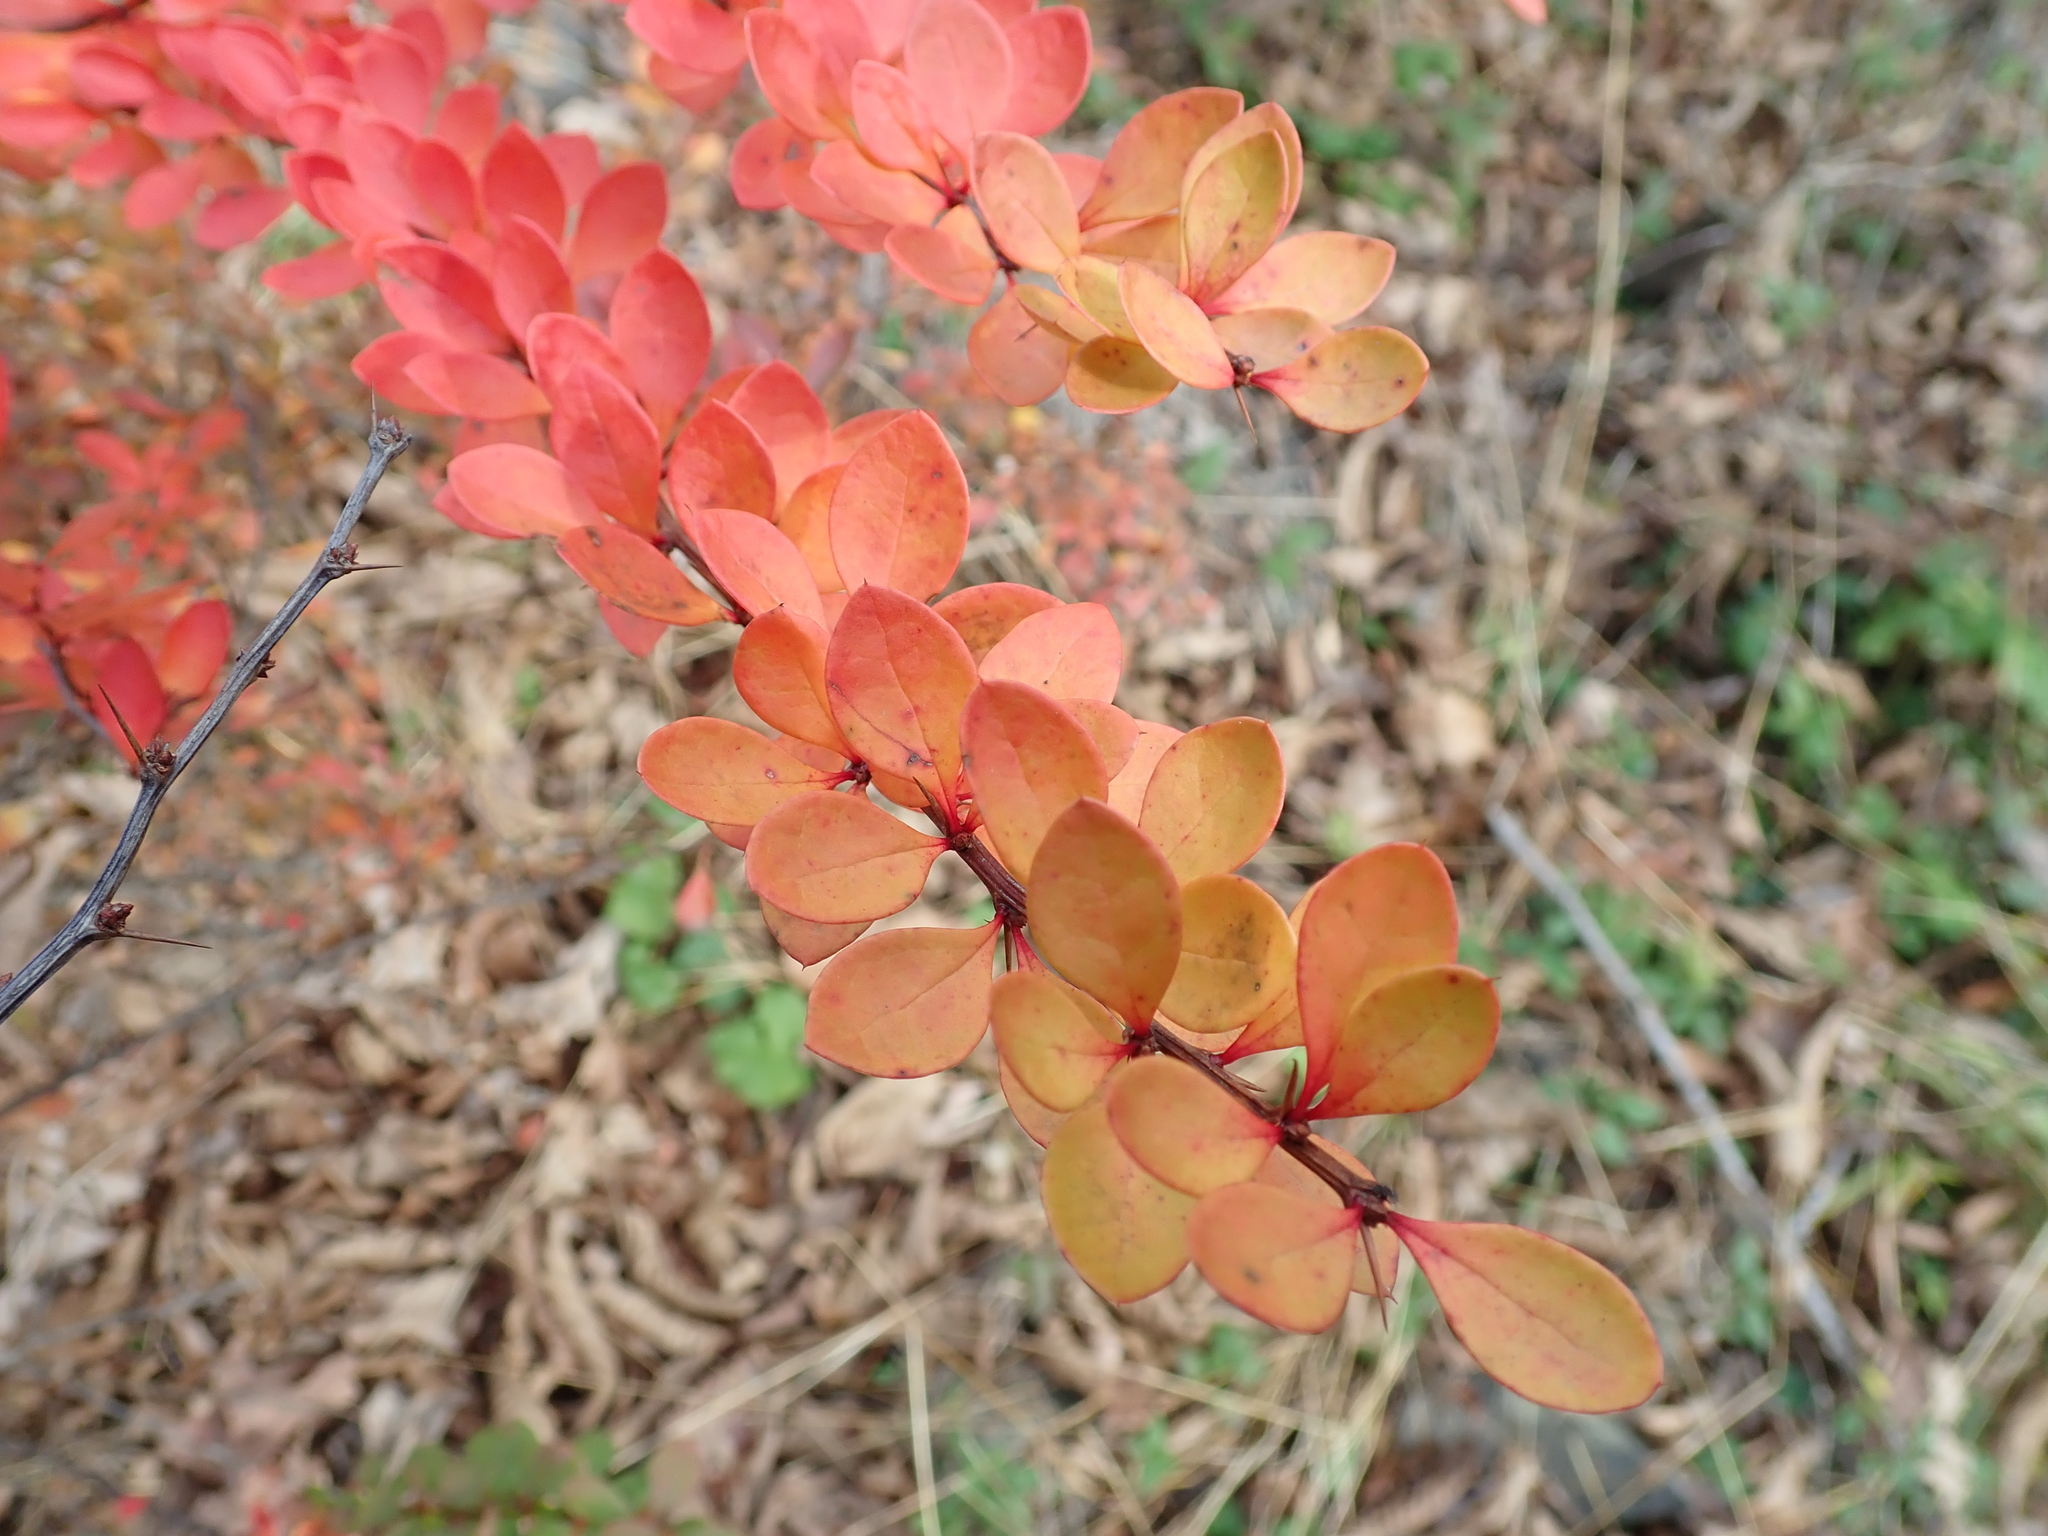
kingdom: Plantae
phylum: Tracheophyta
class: Magnoliopsida
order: Ranunculales
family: Berberidaceae
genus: Berberis
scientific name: Berberis thunbergii
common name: Japanese barberry
